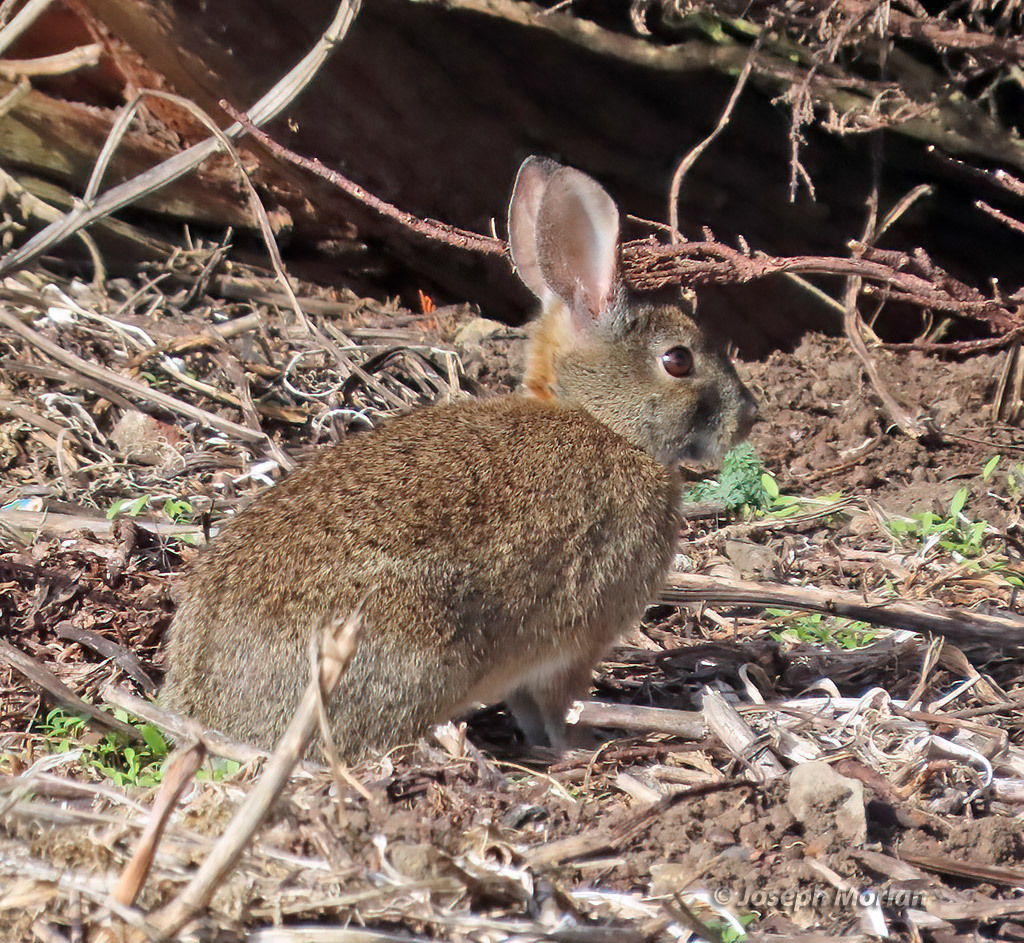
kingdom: Animalia
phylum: Chordata
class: Mammalia
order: Lagomorpha
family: Leporidae
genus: Sylvilagus
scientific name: Sylvilagus bachmani
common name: Brush rabbit
